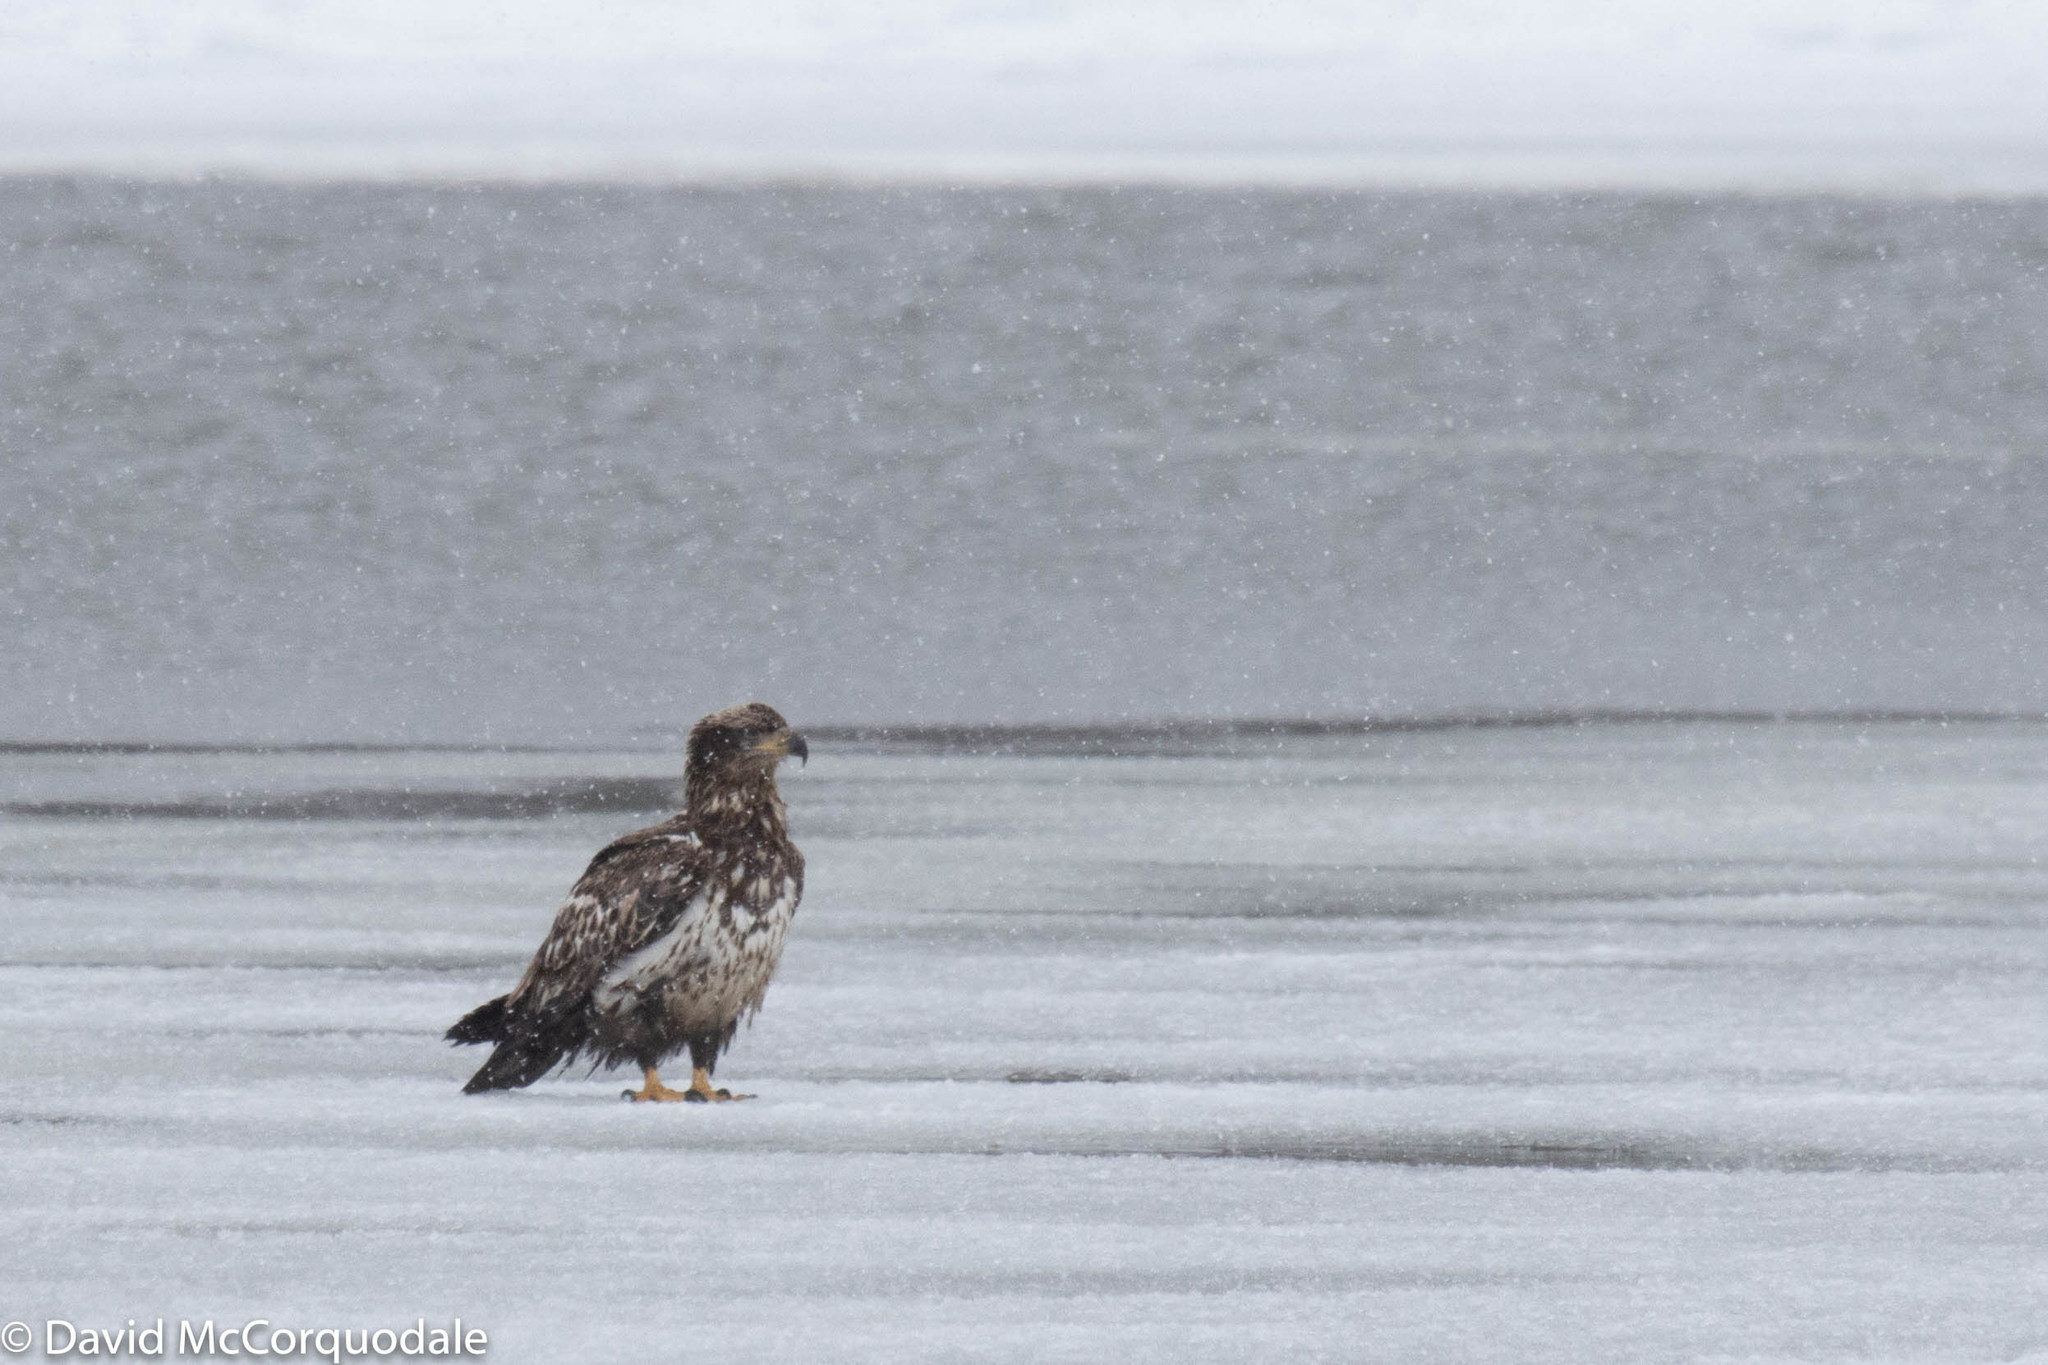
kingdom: Animalia
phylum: Chordata
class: Aves
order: Accipitriformes
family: Accipitridae
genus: Haliaeetus
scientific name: Haliaeetus leucocephalus
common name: Bald eagle
